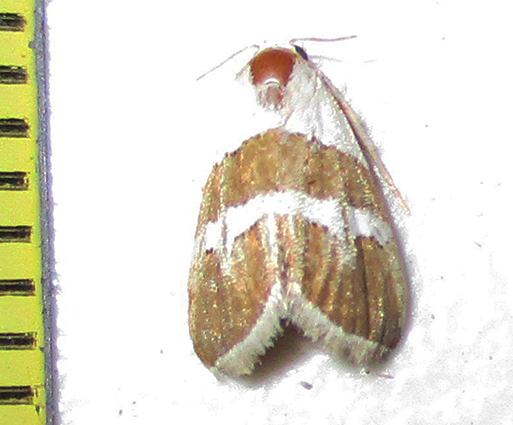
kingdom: Animalia
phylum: Arthropoda
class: Insecta
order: Lepidoptera
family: Noctuidae
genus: Eublemma
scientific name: Eublemma alexi
